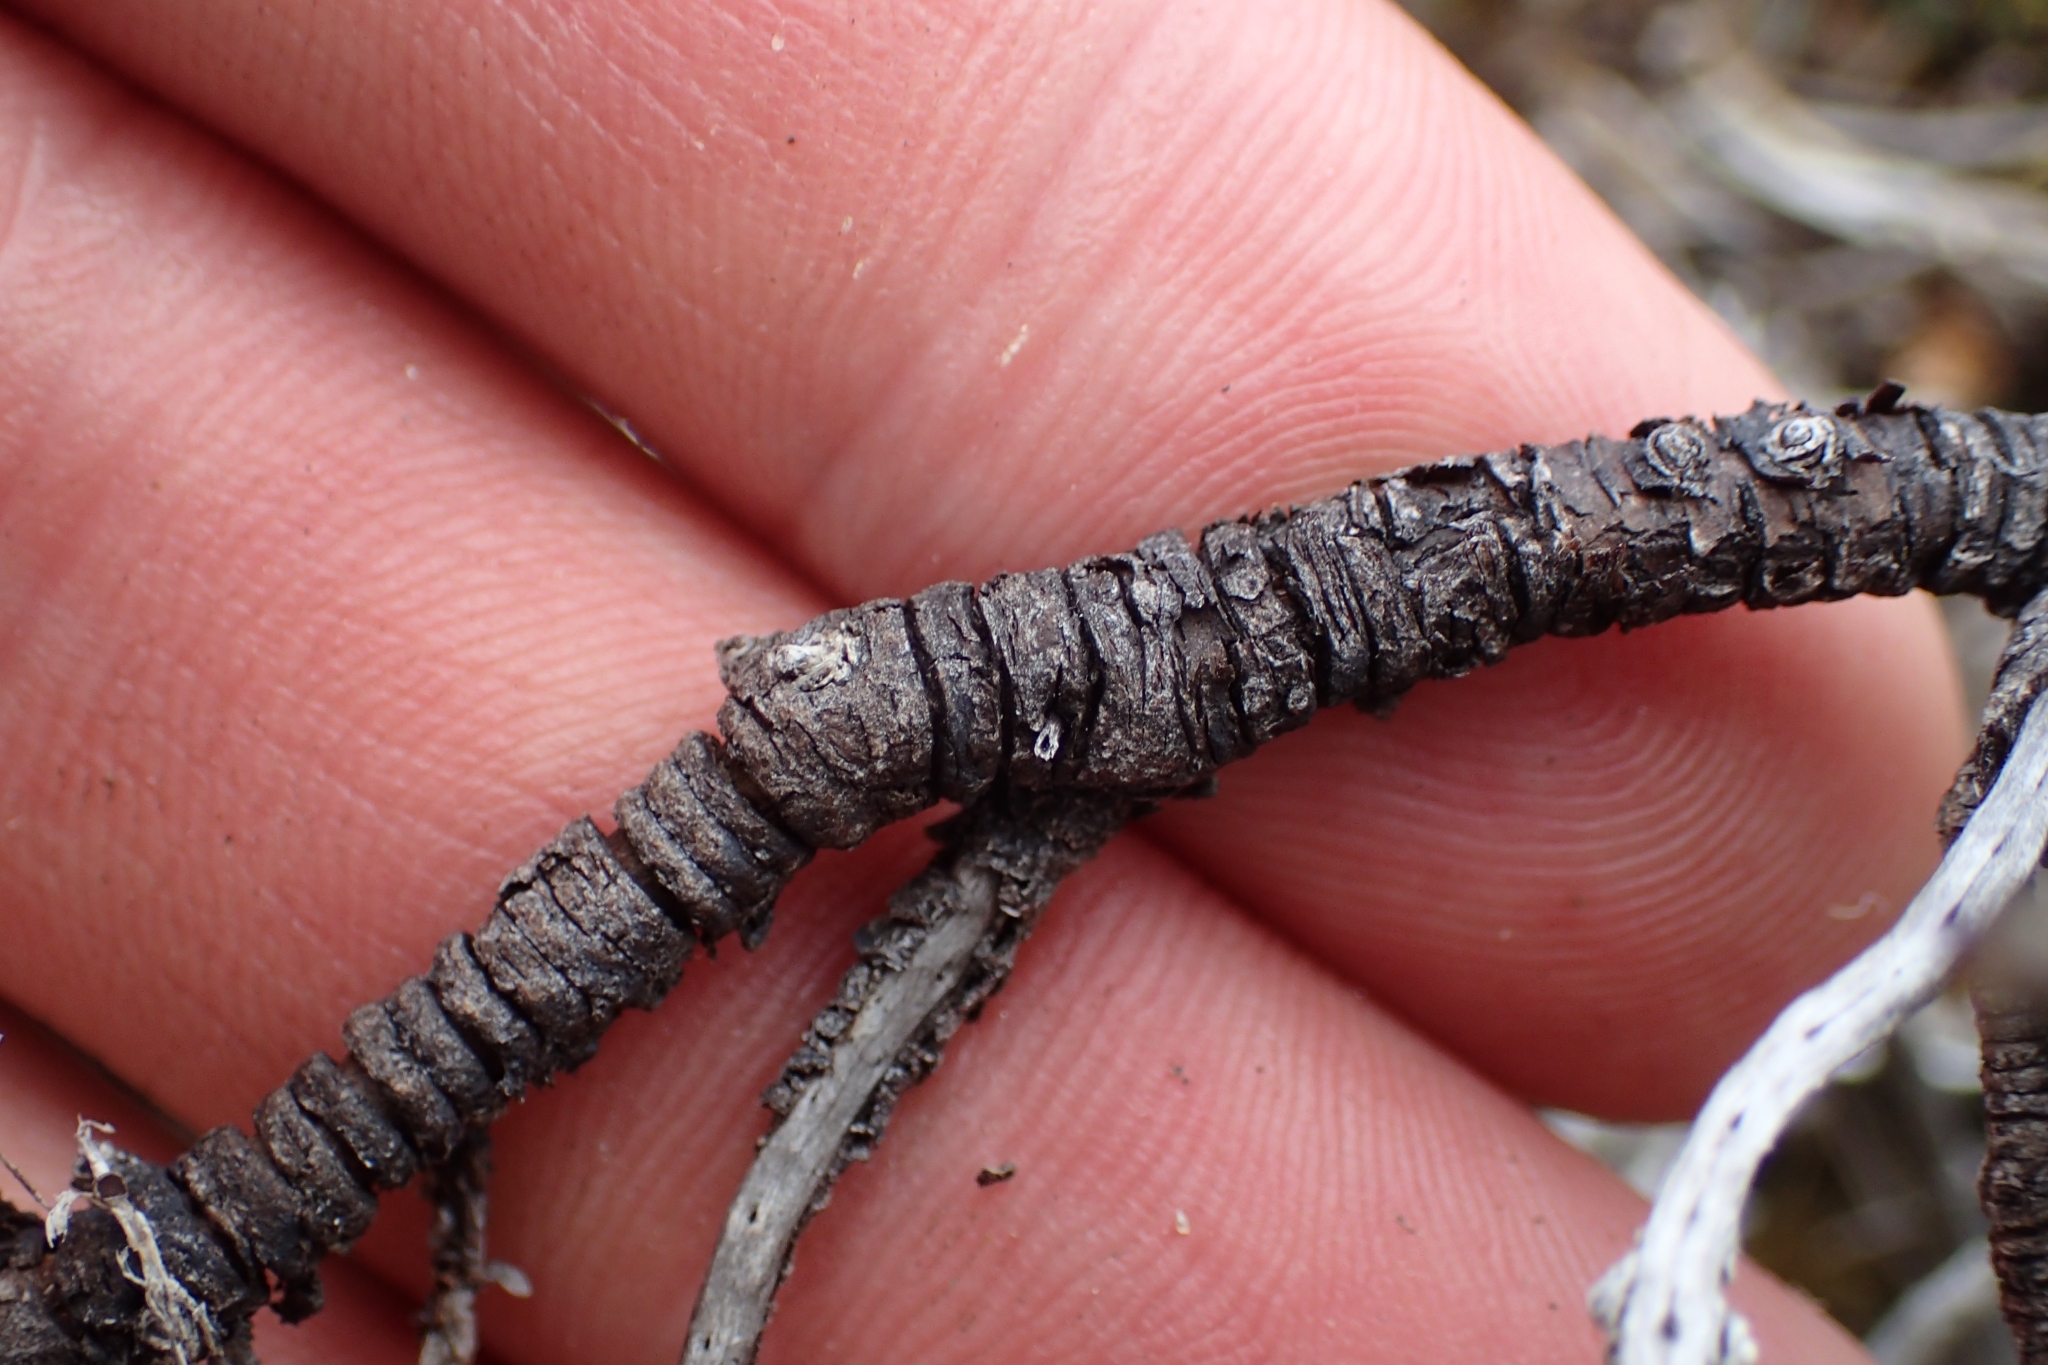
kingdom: Plantae
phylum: Tracheophyta
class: Magnoliopsida
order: Lamiales
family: Plantaginaceae
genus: Veronica
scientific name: Veronica hectorii
